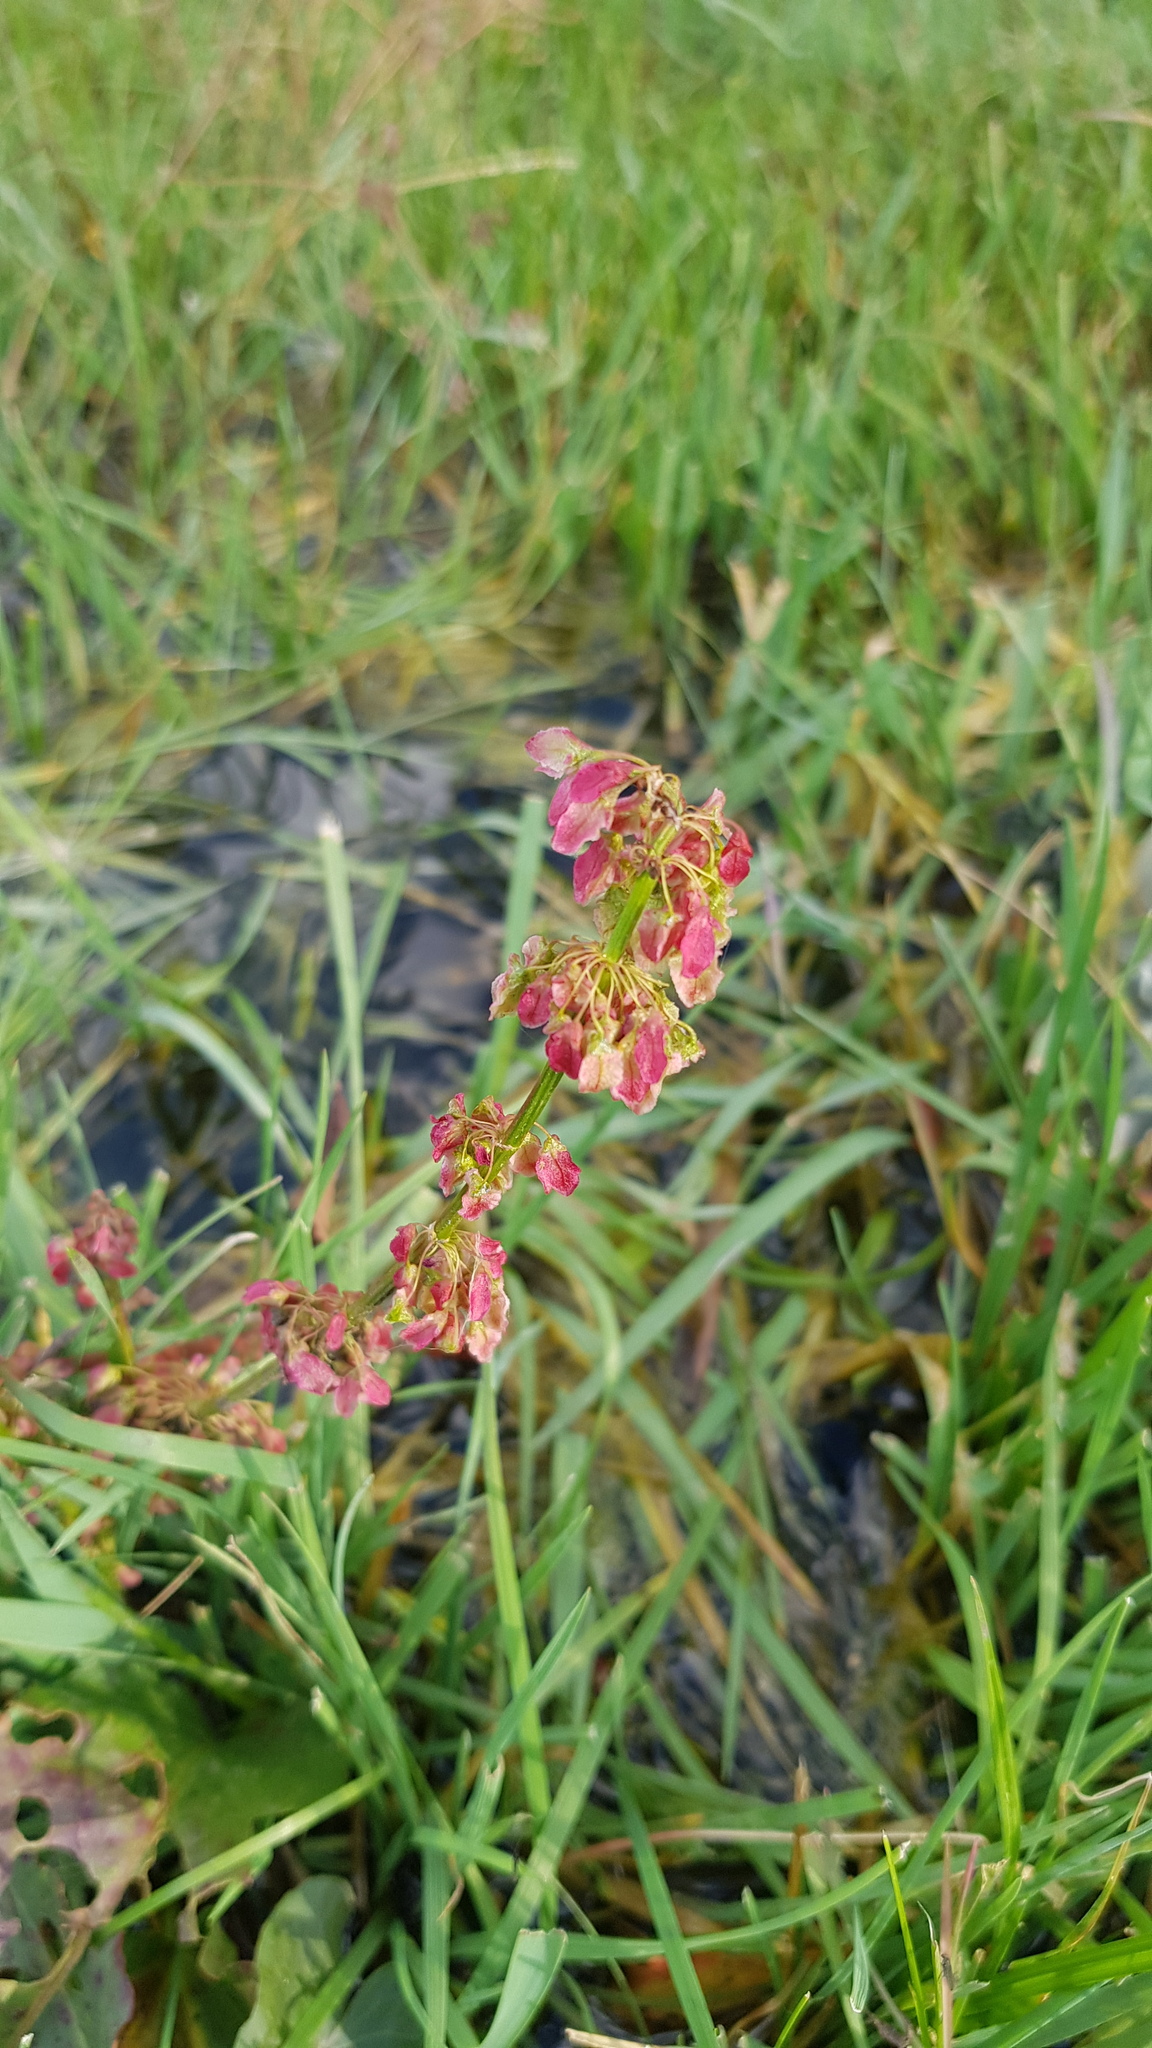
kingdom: Plantae
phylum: Tracheophyta
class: Magnoliopsida
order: Caryophyllales
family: Polygonaceae
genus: Rumex
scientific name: Rumex acetosa
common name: Garden sorrel
